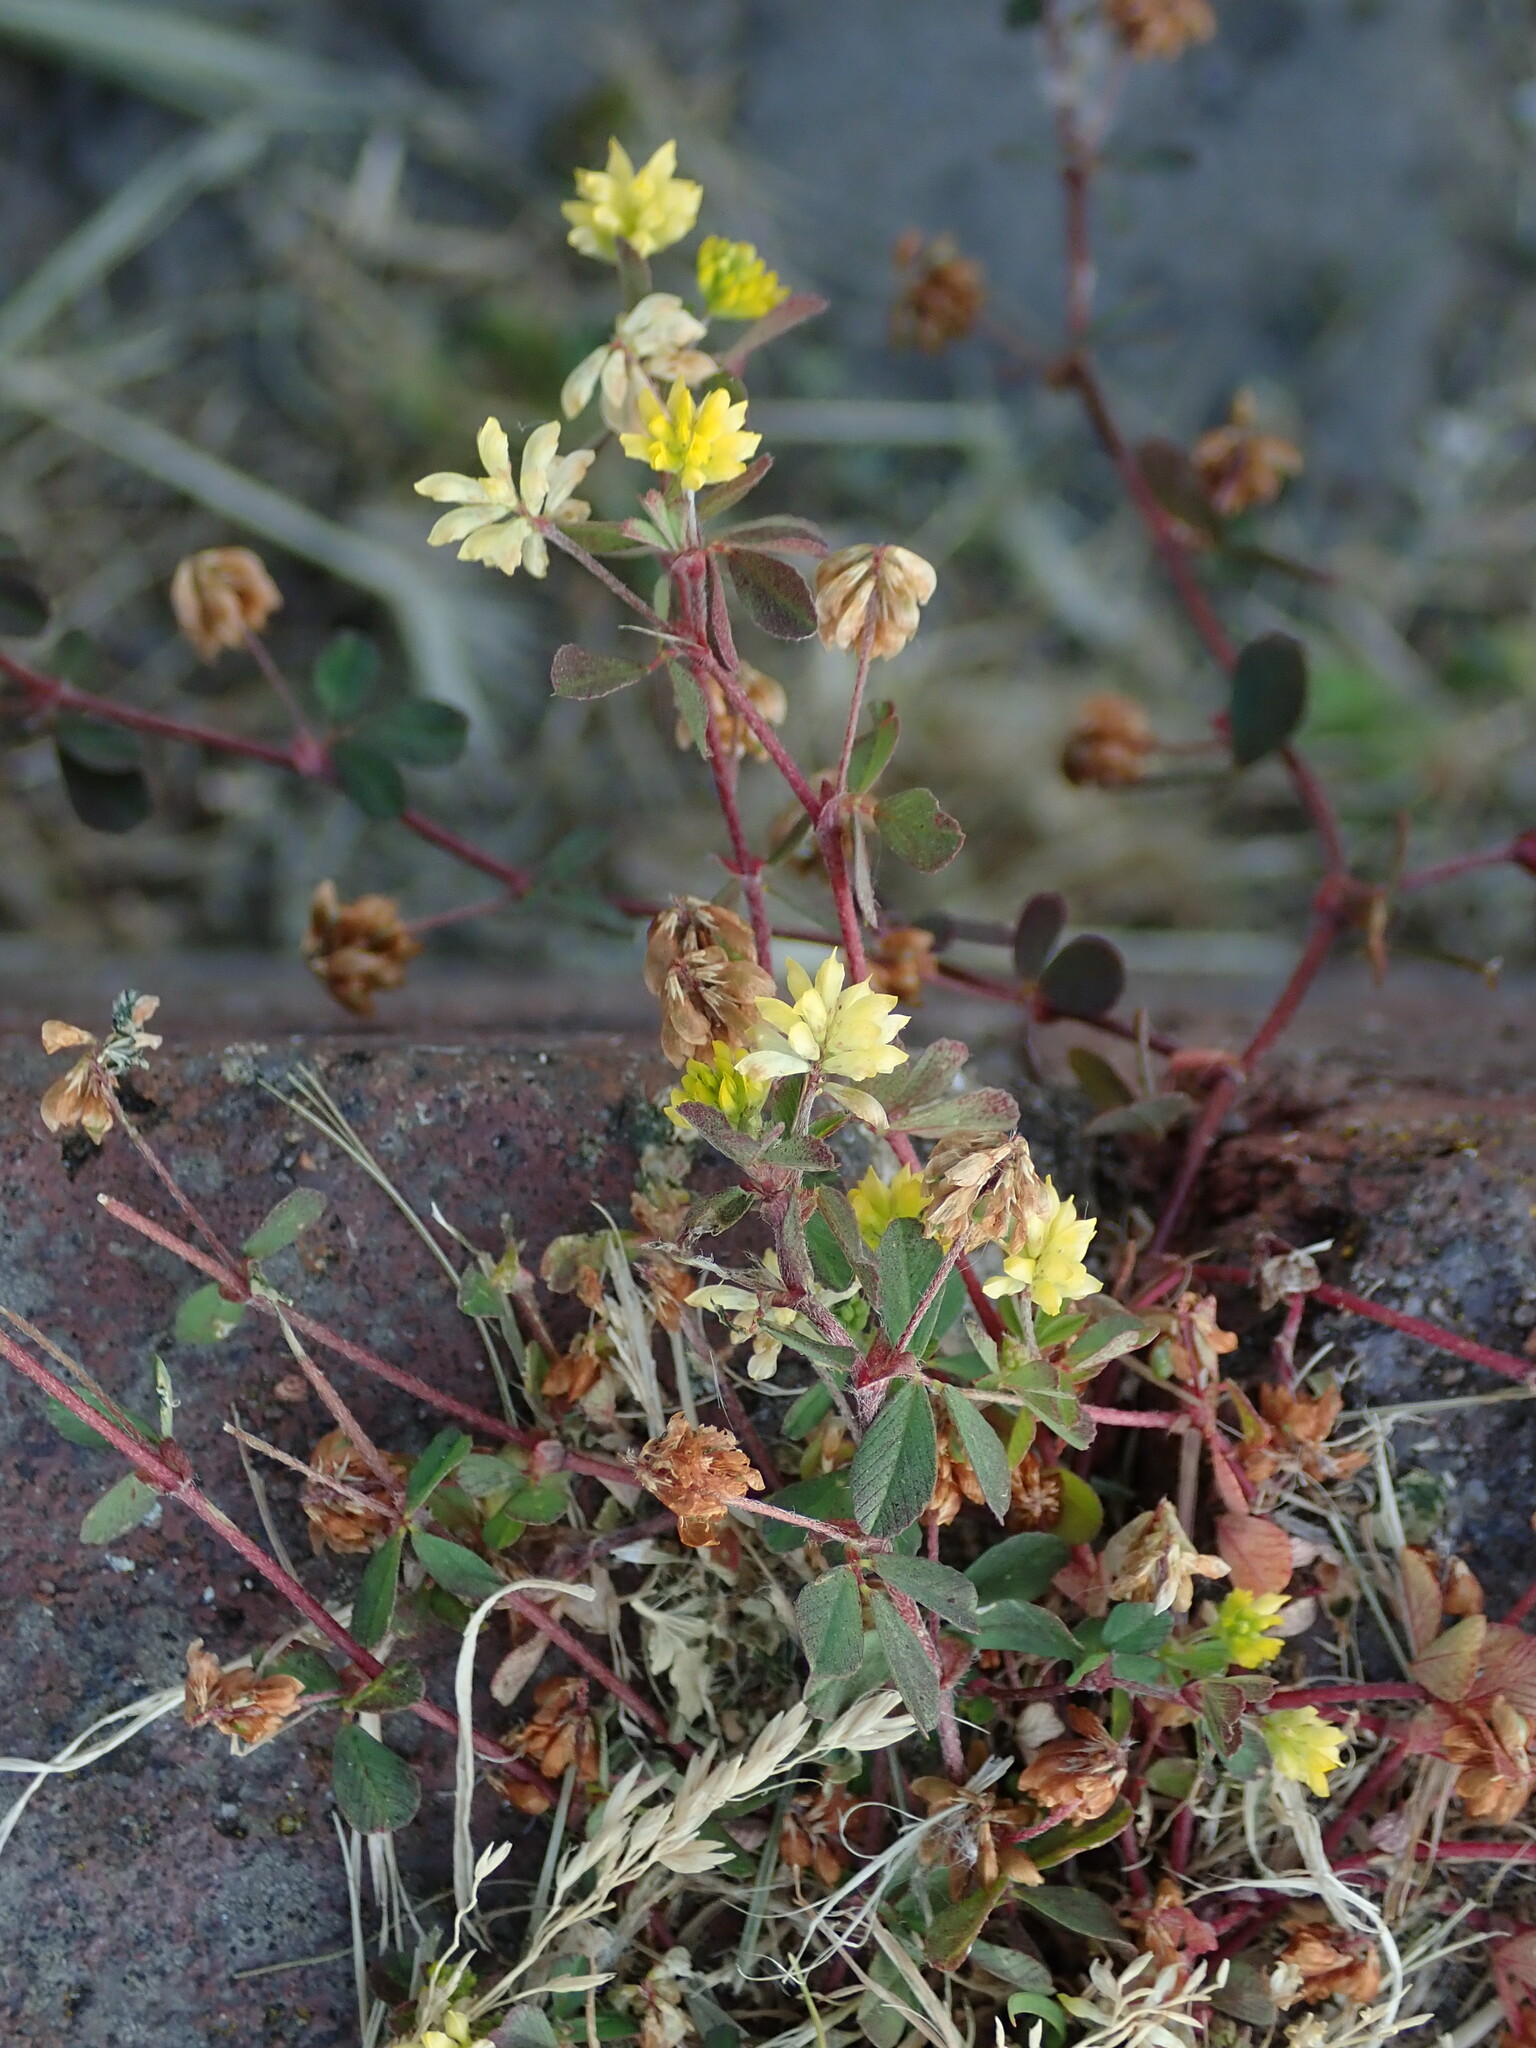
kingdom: Plantae
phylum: Tracheophyta
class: Magnoliopsida
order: Fabales
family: Fabaceae
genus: Trifolium
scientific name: Trifolium dubium
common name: Suckling clover
